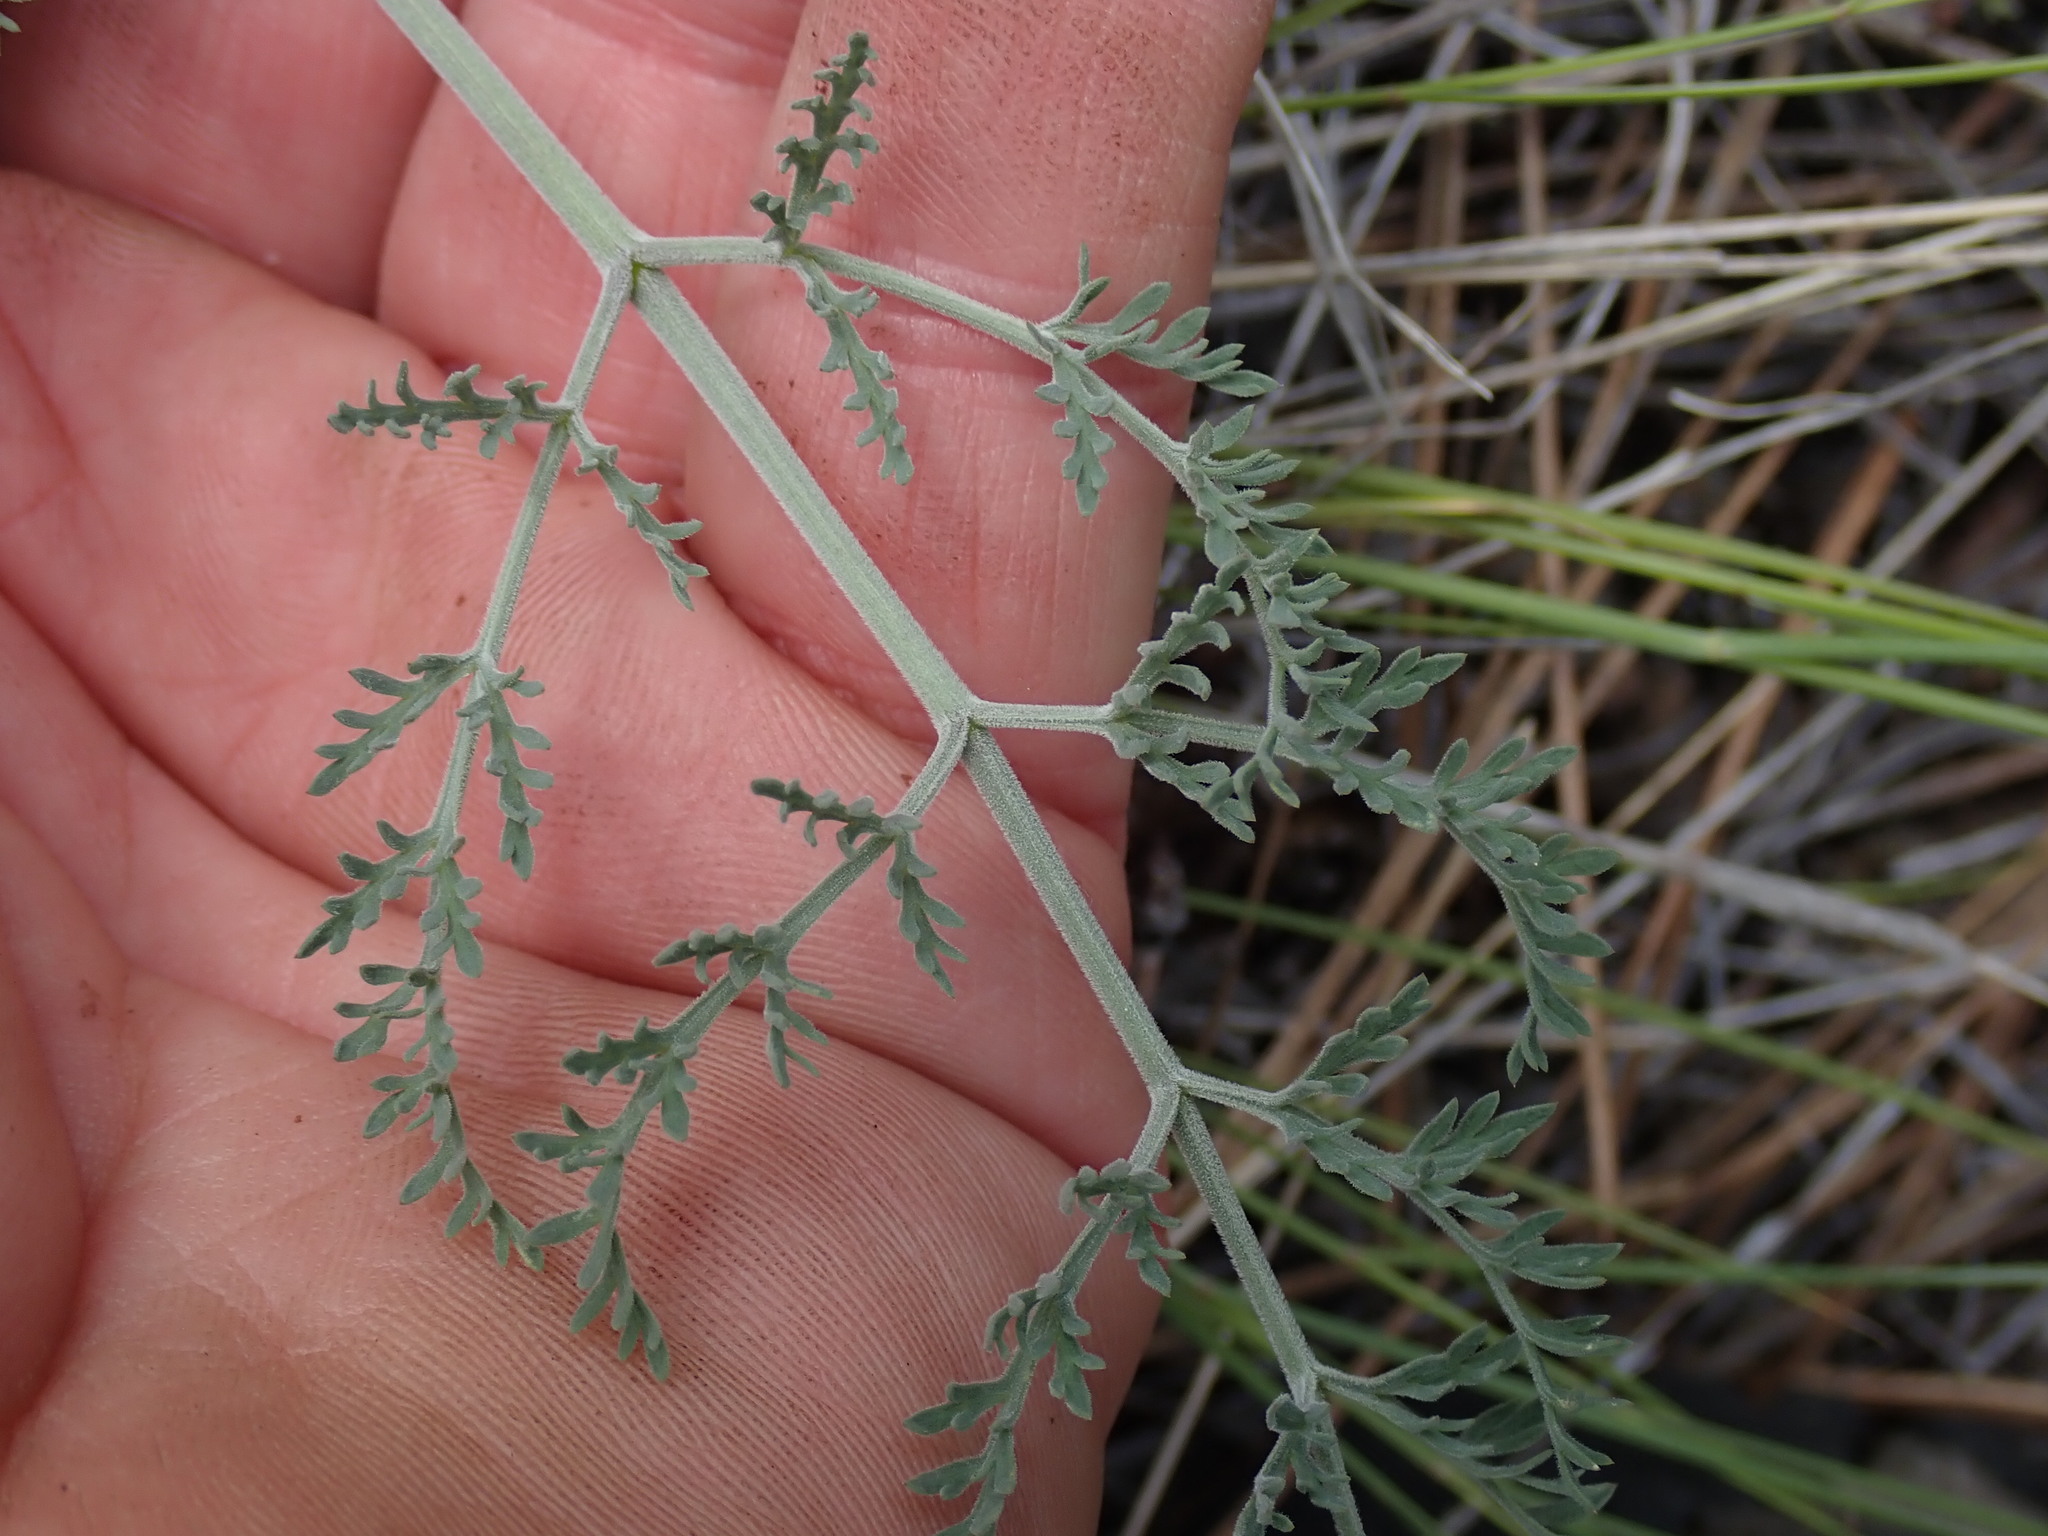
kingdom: Plantae
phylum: Tracheophyta
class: Magnoliopsida
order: Apiales
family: Apiaceae
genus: Lomatium
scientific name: Lomatium macrocarpum
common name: Big-seed biscuitroot
